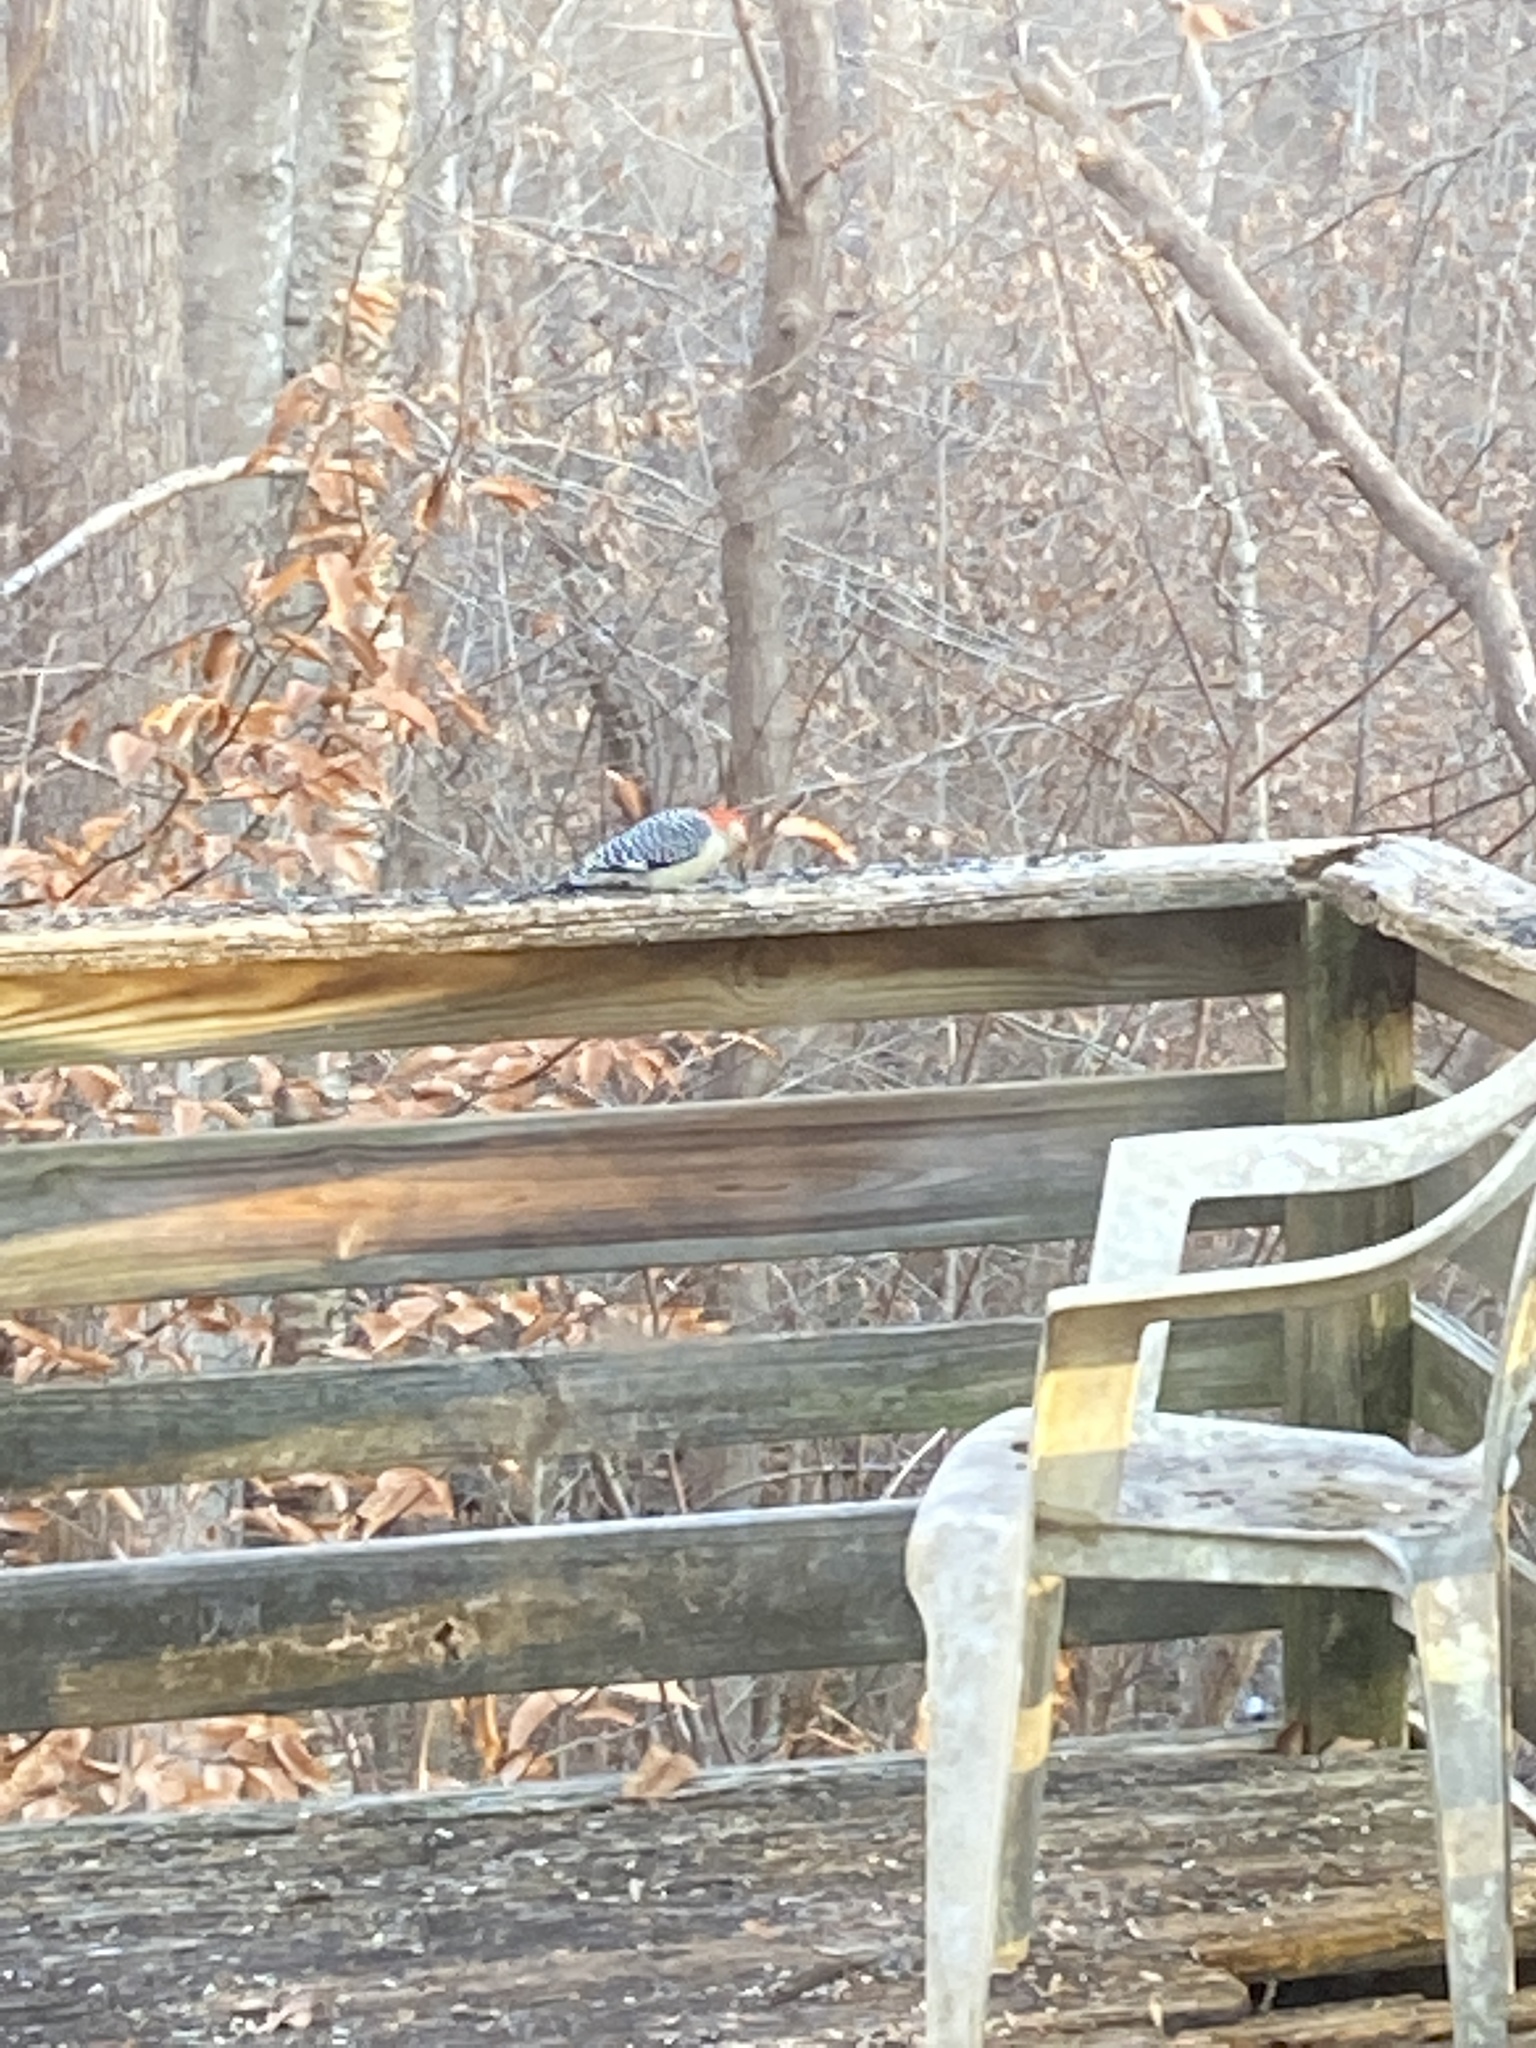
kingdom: Animalia
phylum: Chordata
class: Aves
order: Piciformes
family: Picidae
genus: Melanerpes
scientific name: Melanerpes carolinus
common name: Red-bellied woodpecker
